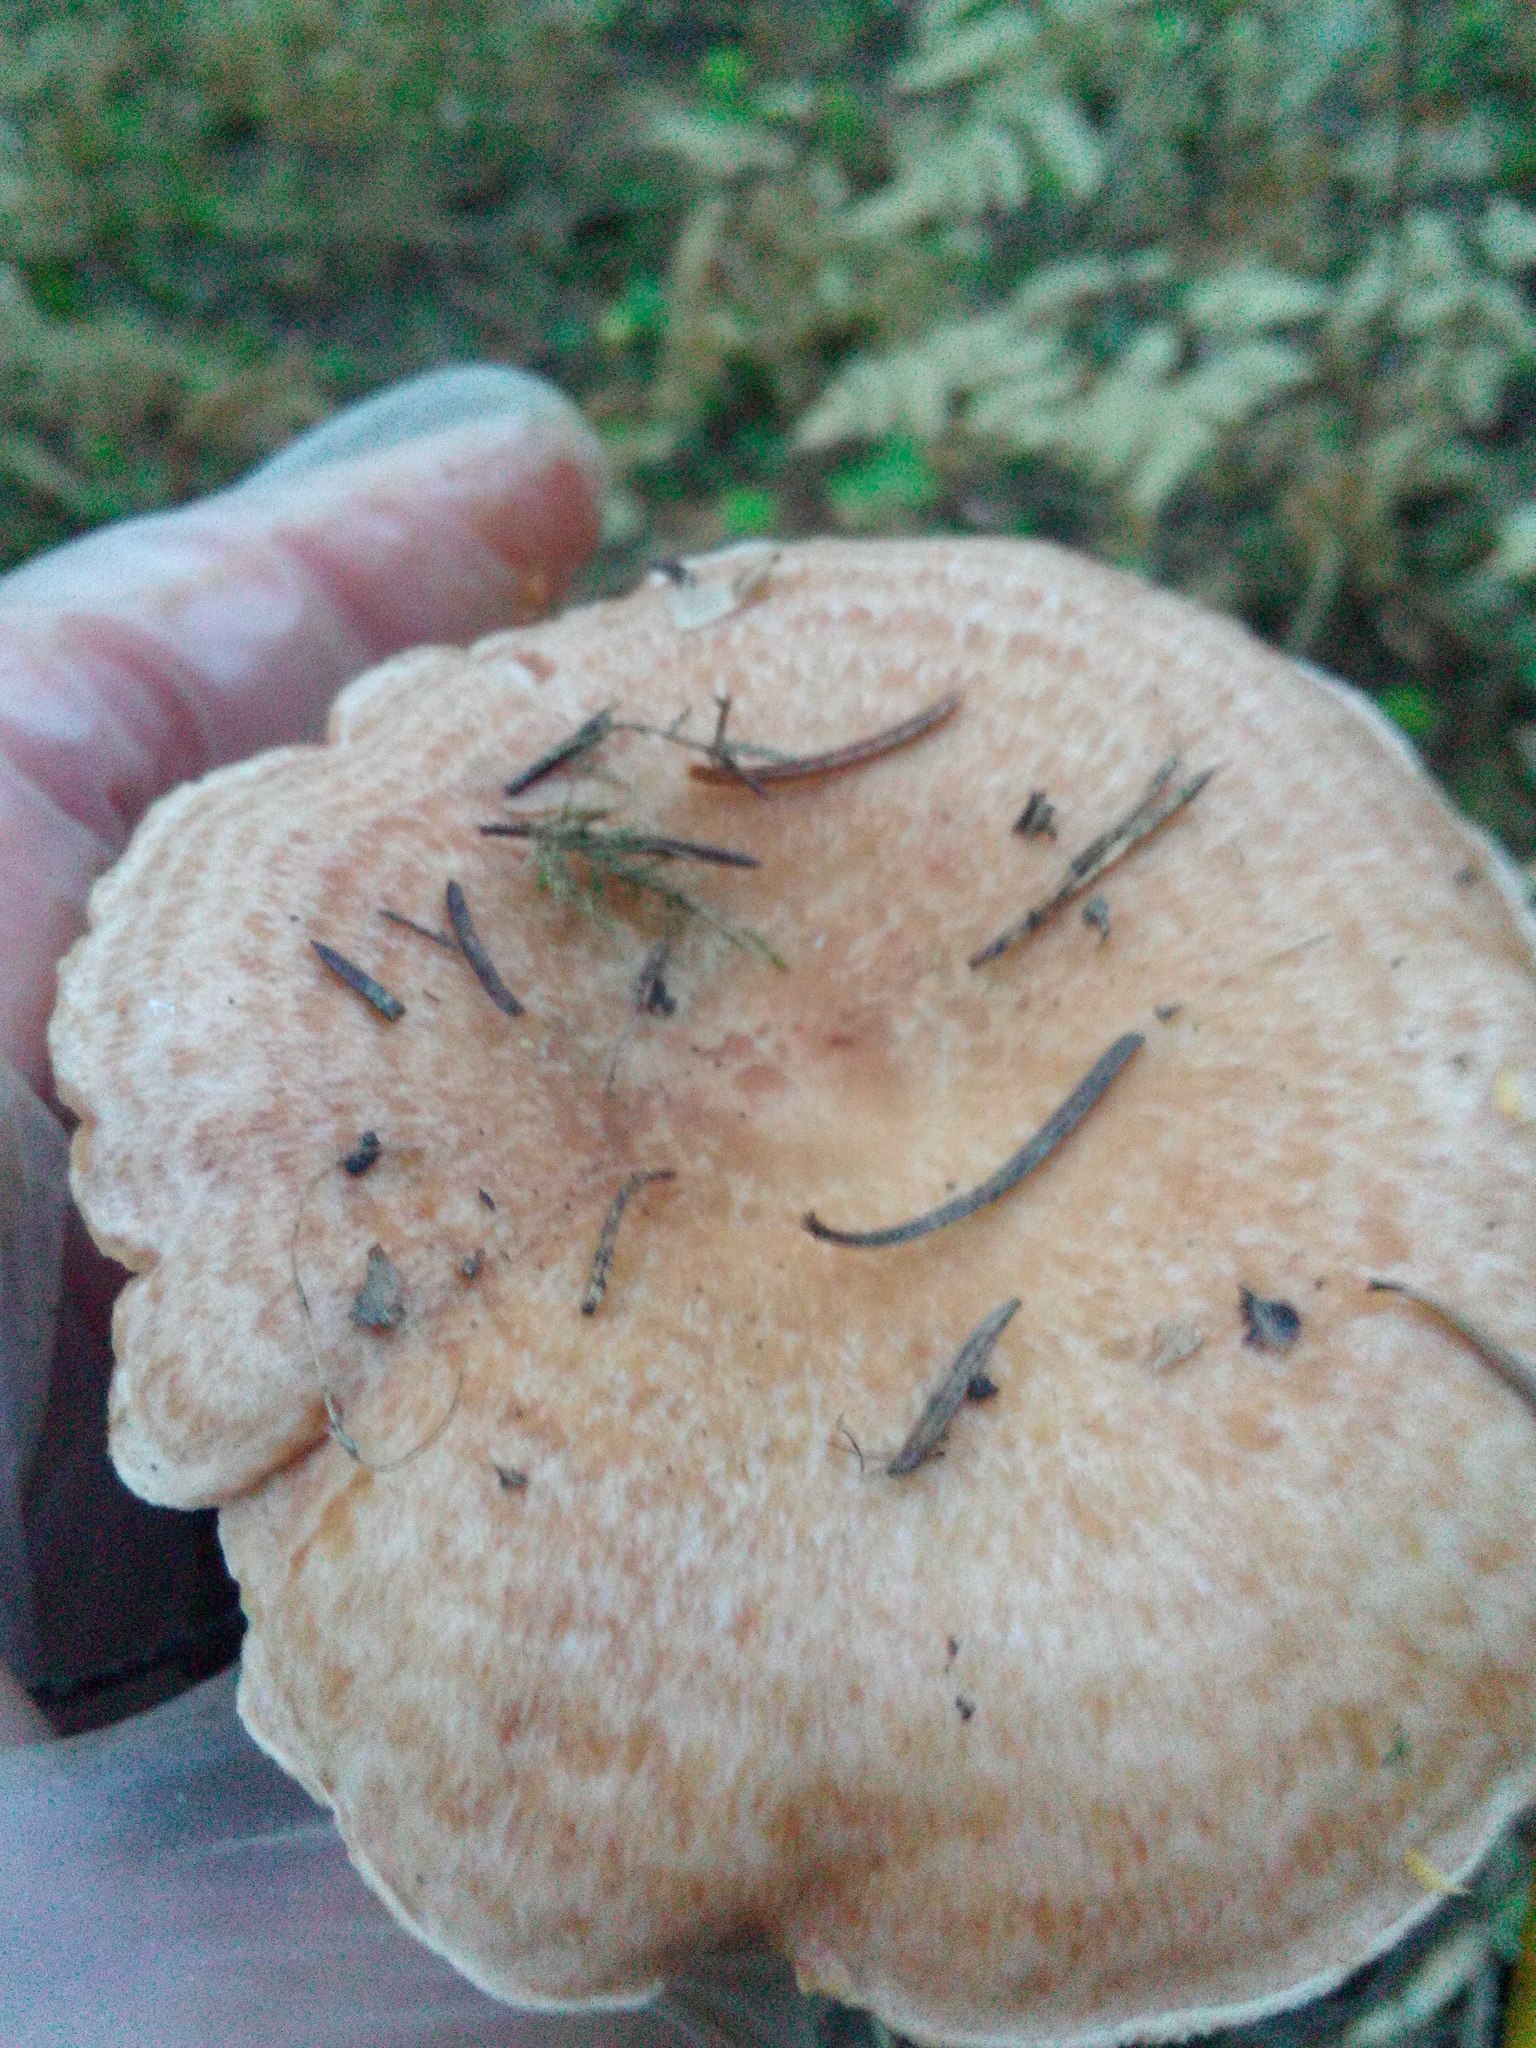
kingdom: Fungi
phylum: Basidiomycota
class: Agaricomycetes
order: Russulales
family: Russulaceae
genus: Lactarius
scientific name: Lactarius deliciosus
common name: Saffron milk-cap
